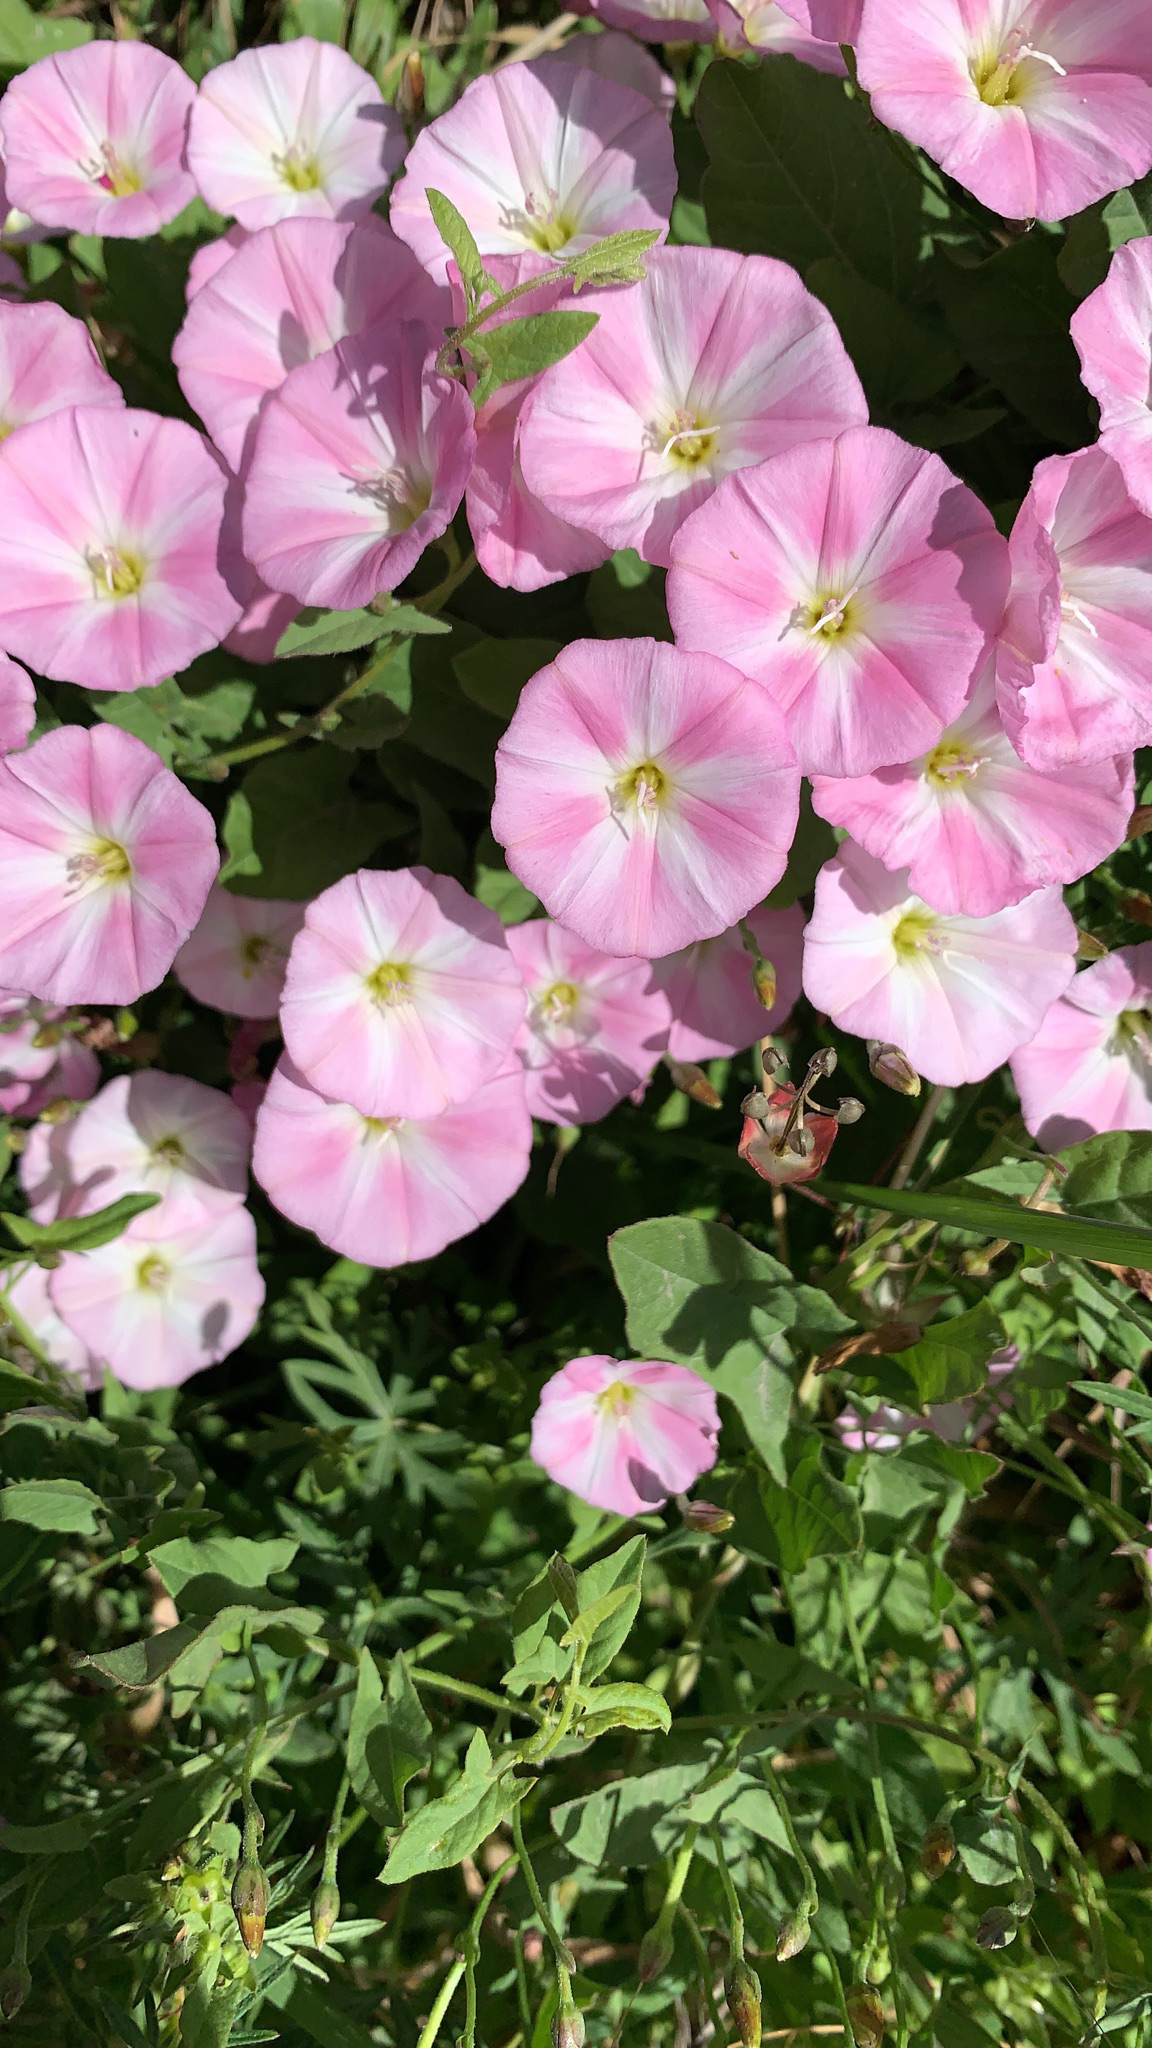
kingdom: Plantae
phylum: Tracheophyta
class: Magnoliopsida
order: Solanales
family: Convolvulaceae
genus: Convolvulus
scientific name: Convolvulus arvensis
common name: Field bindweed
